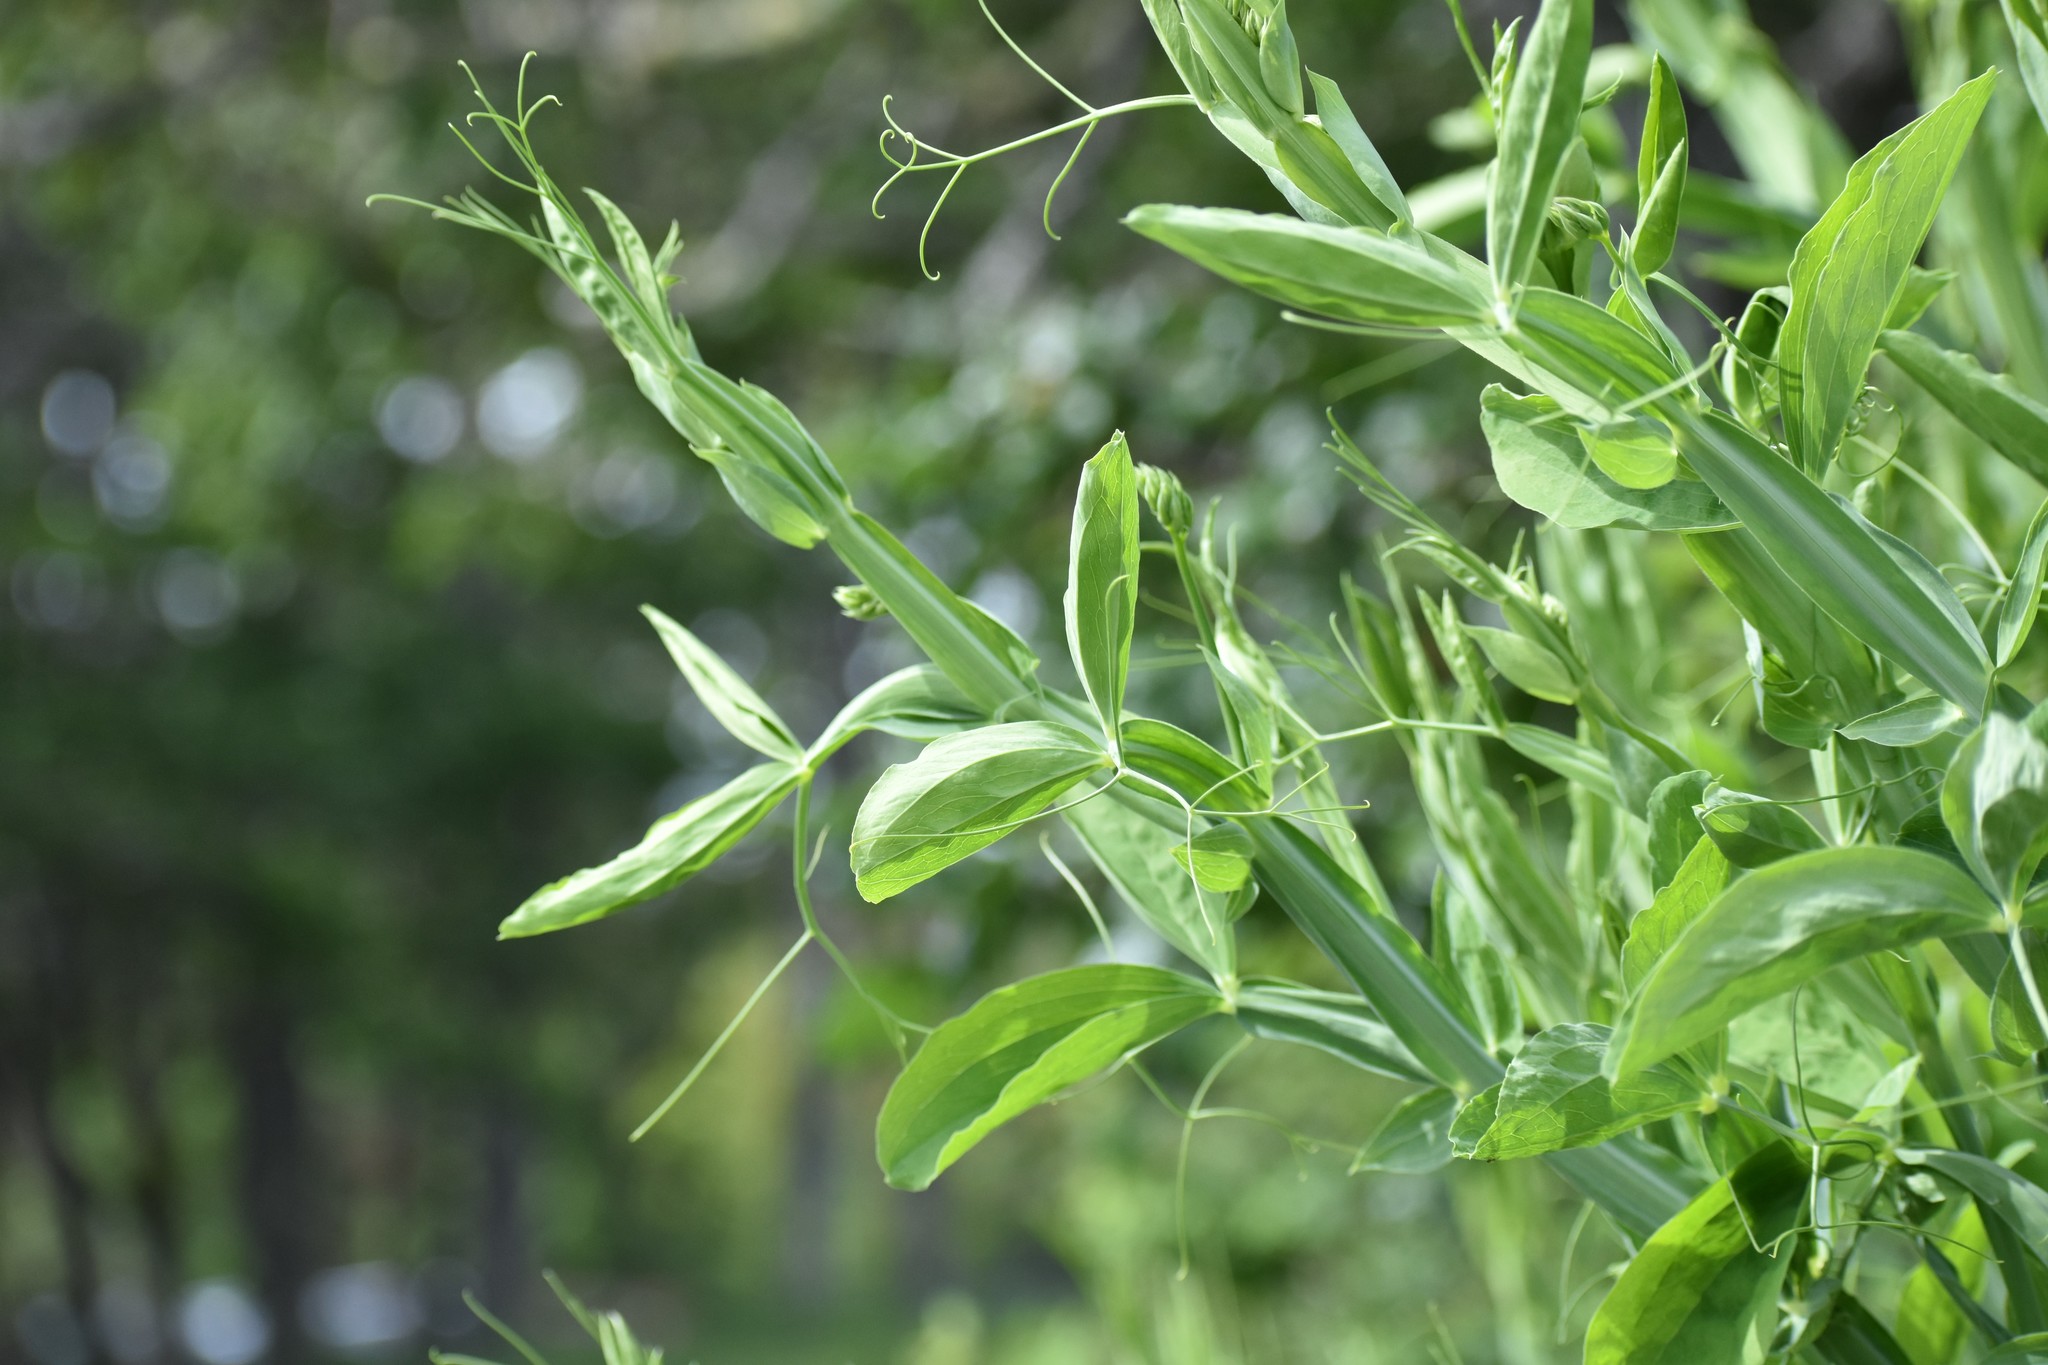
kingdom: Plantae
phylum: Tracheophyta
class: Magnoliopsida
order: Fabales
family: Fabaceae
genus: Lathyrus
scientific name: Lathyrus latifolius
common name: Perennial pea
